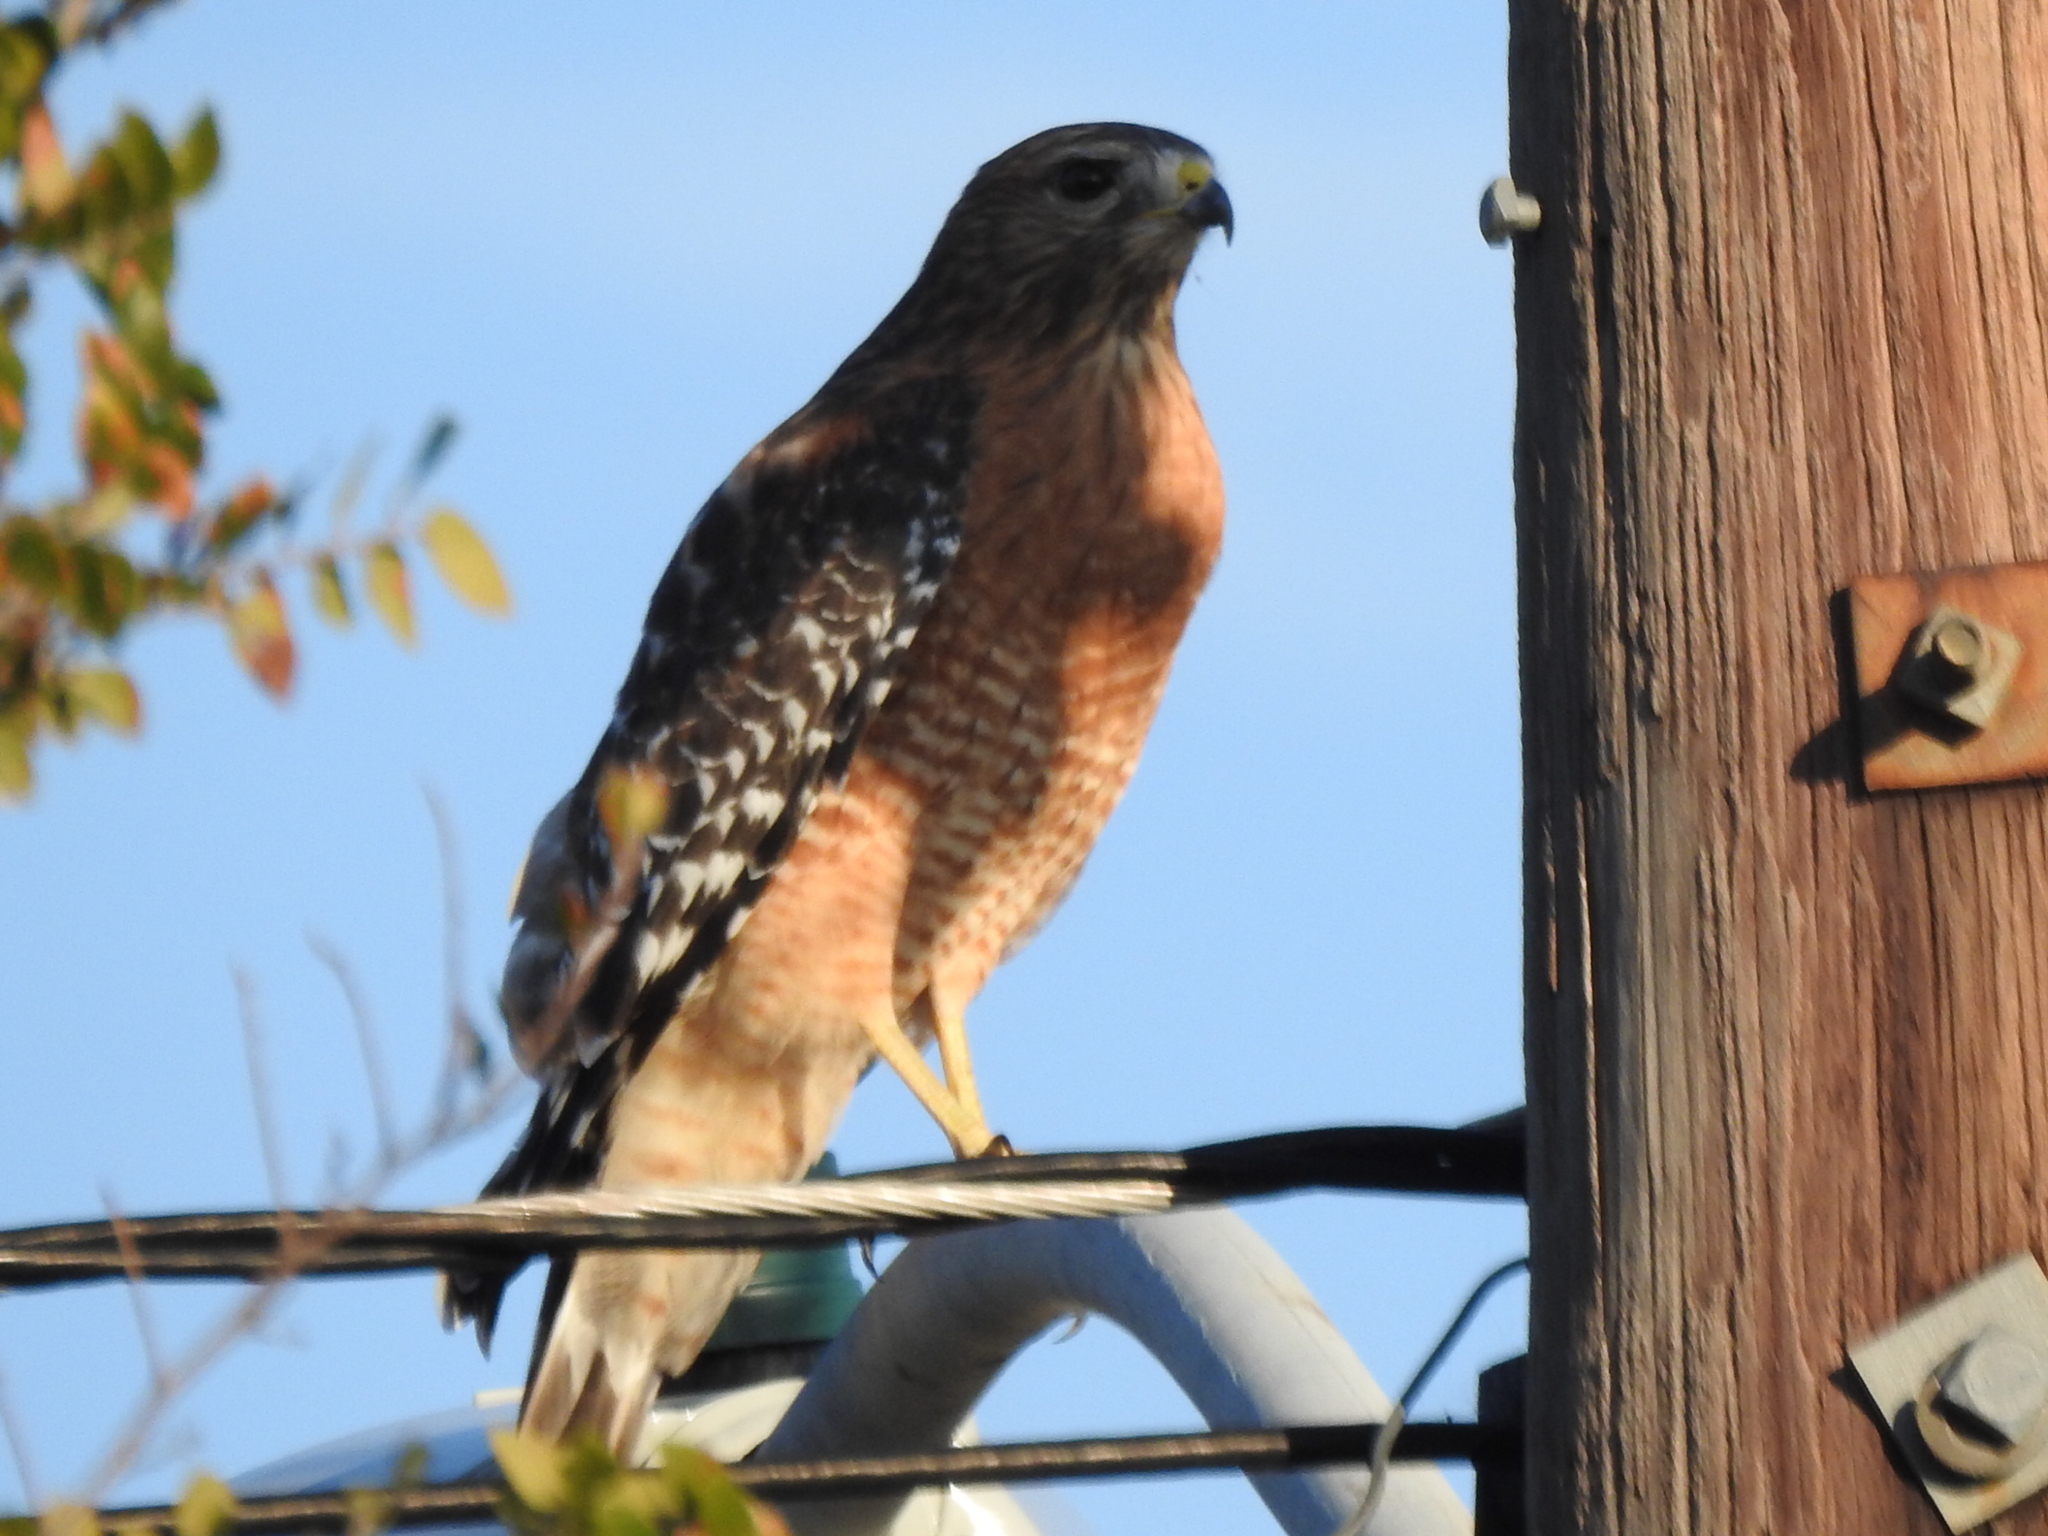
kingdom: Animalia
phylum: Chordata
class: Aves
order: Accipitriformes
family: Accipitridae
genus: Buteo
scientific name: Buteo lineatus
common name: Red-shouldered hawk
